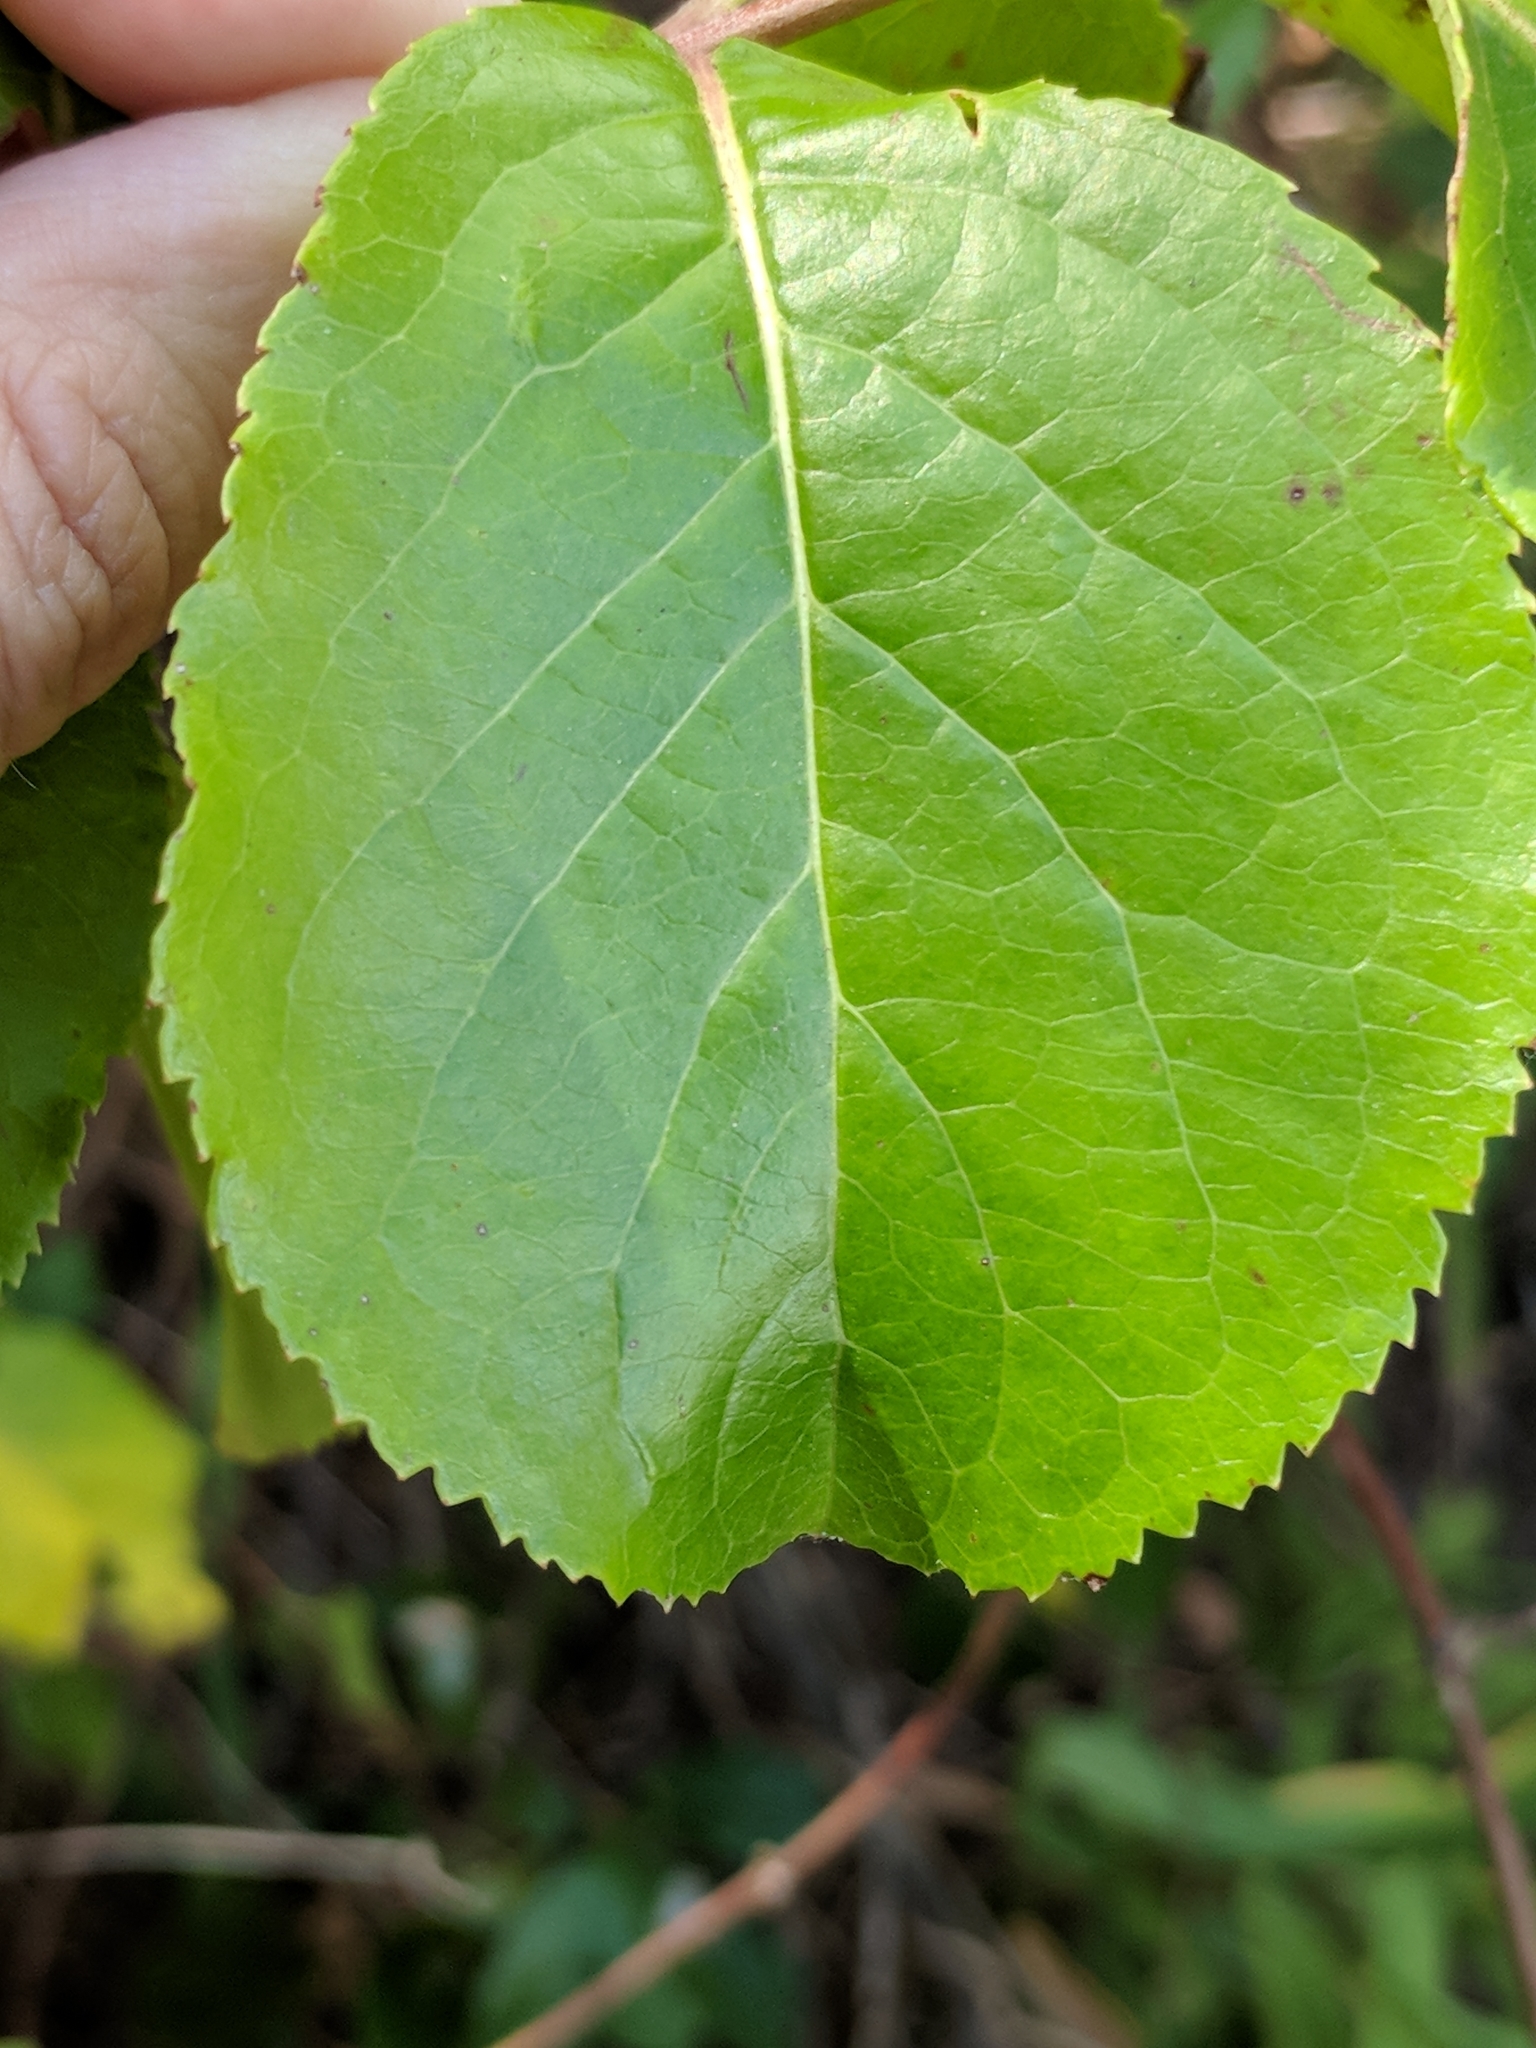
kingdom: Plantae
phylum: Tracheophyta
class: Magnoliopsida
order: Dipsacales
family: Viburnaceae
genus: Viburnum
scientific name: Viburnum rufidulum
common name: Blue haw
